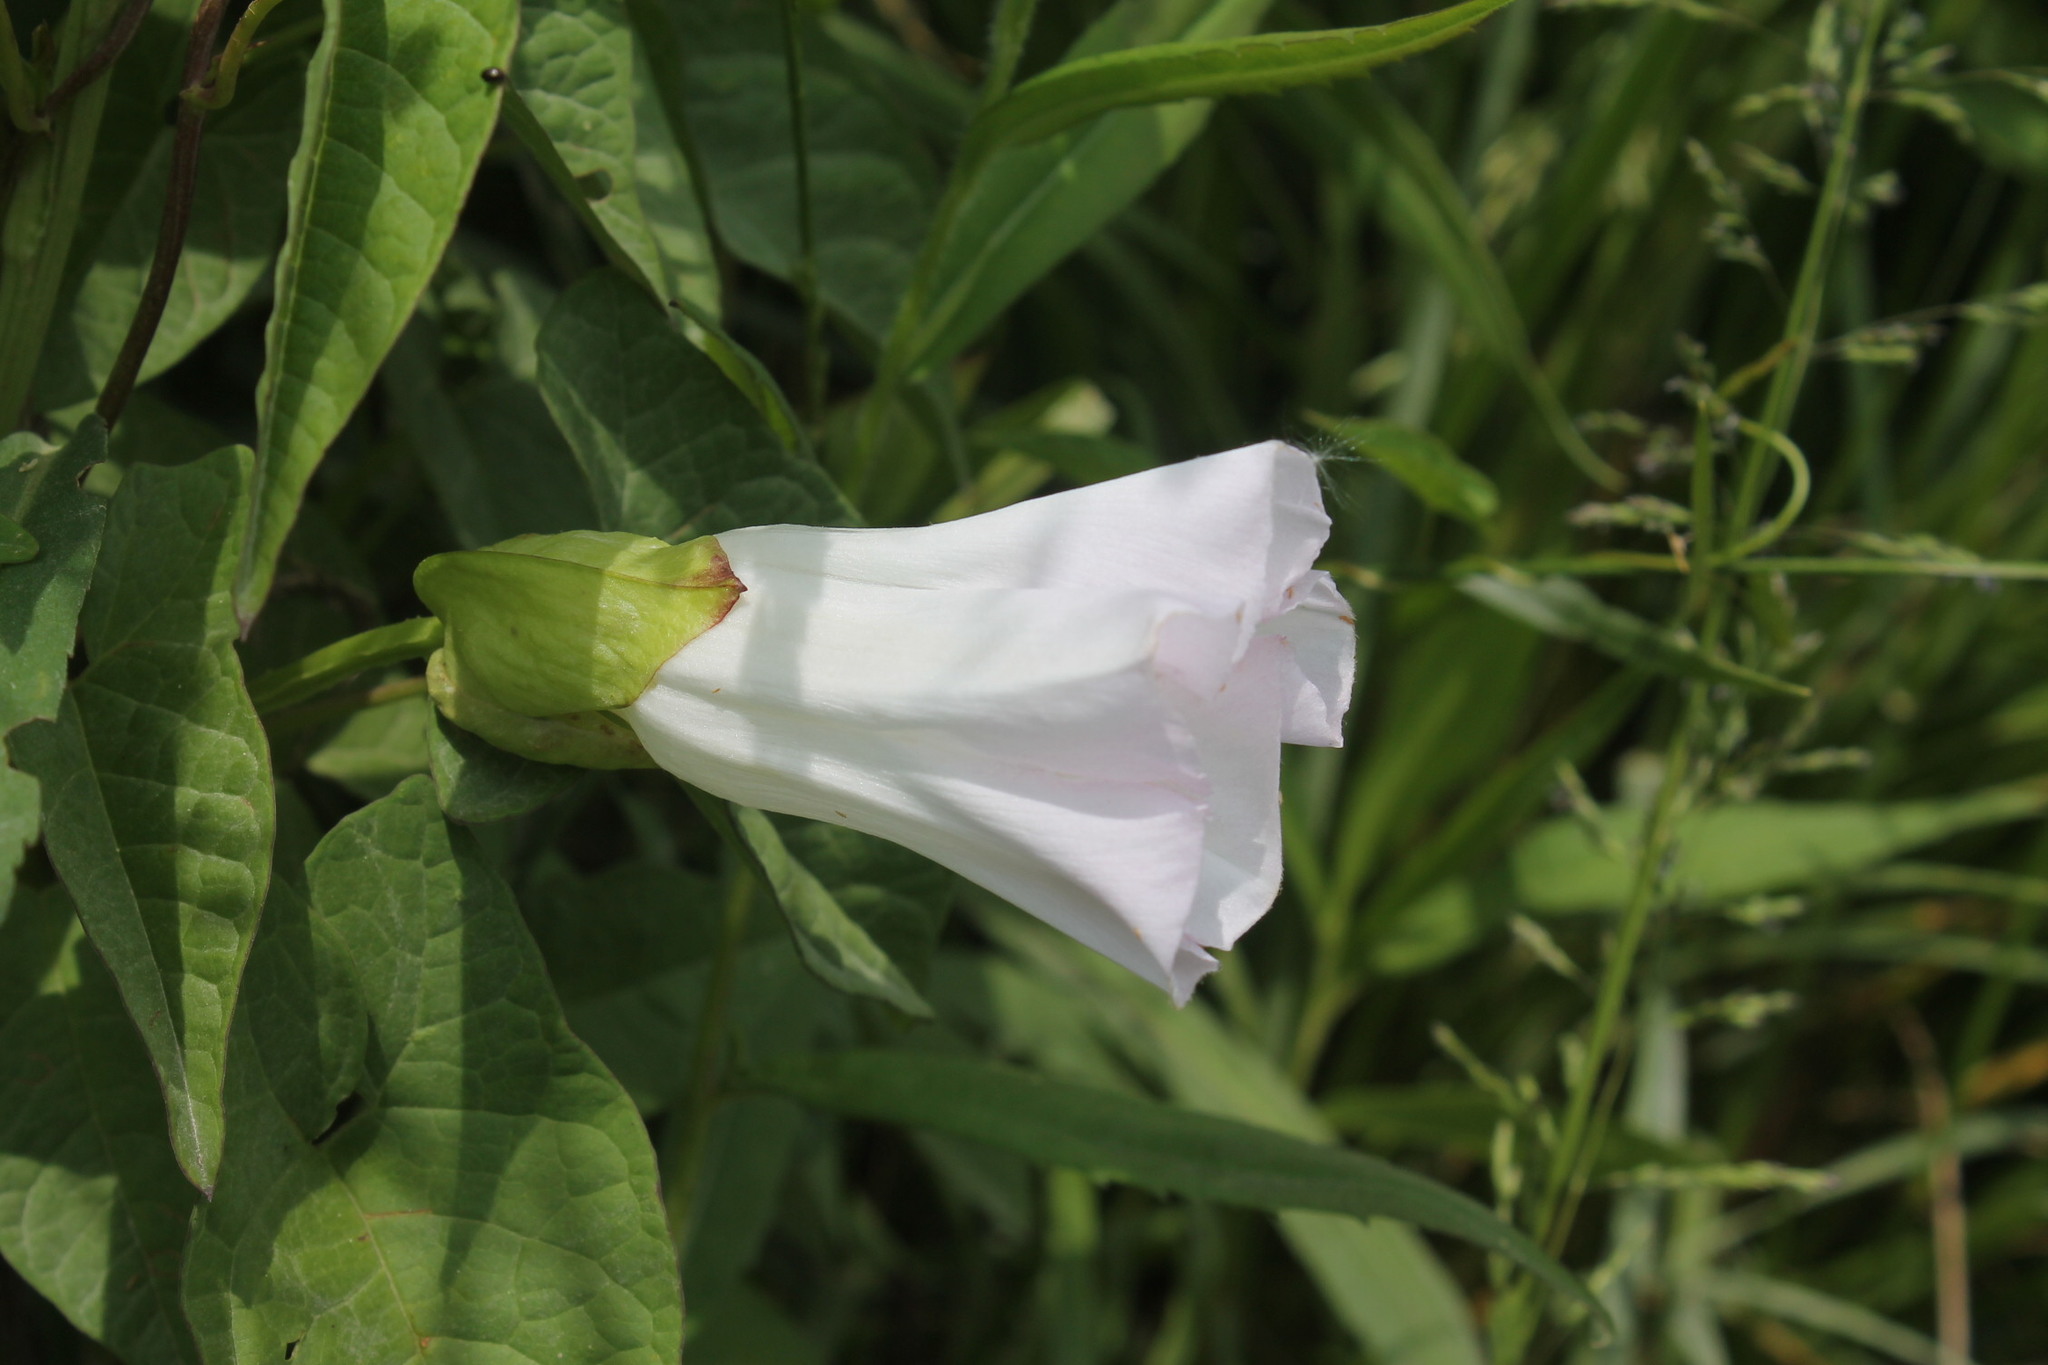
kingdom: Plantae
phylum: Tracheophyta
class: Magnoliopsida
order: Solanales
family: Convolvulaceae
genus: Calystegia
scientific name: Calystegia sepium
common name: Hedge bindweed
